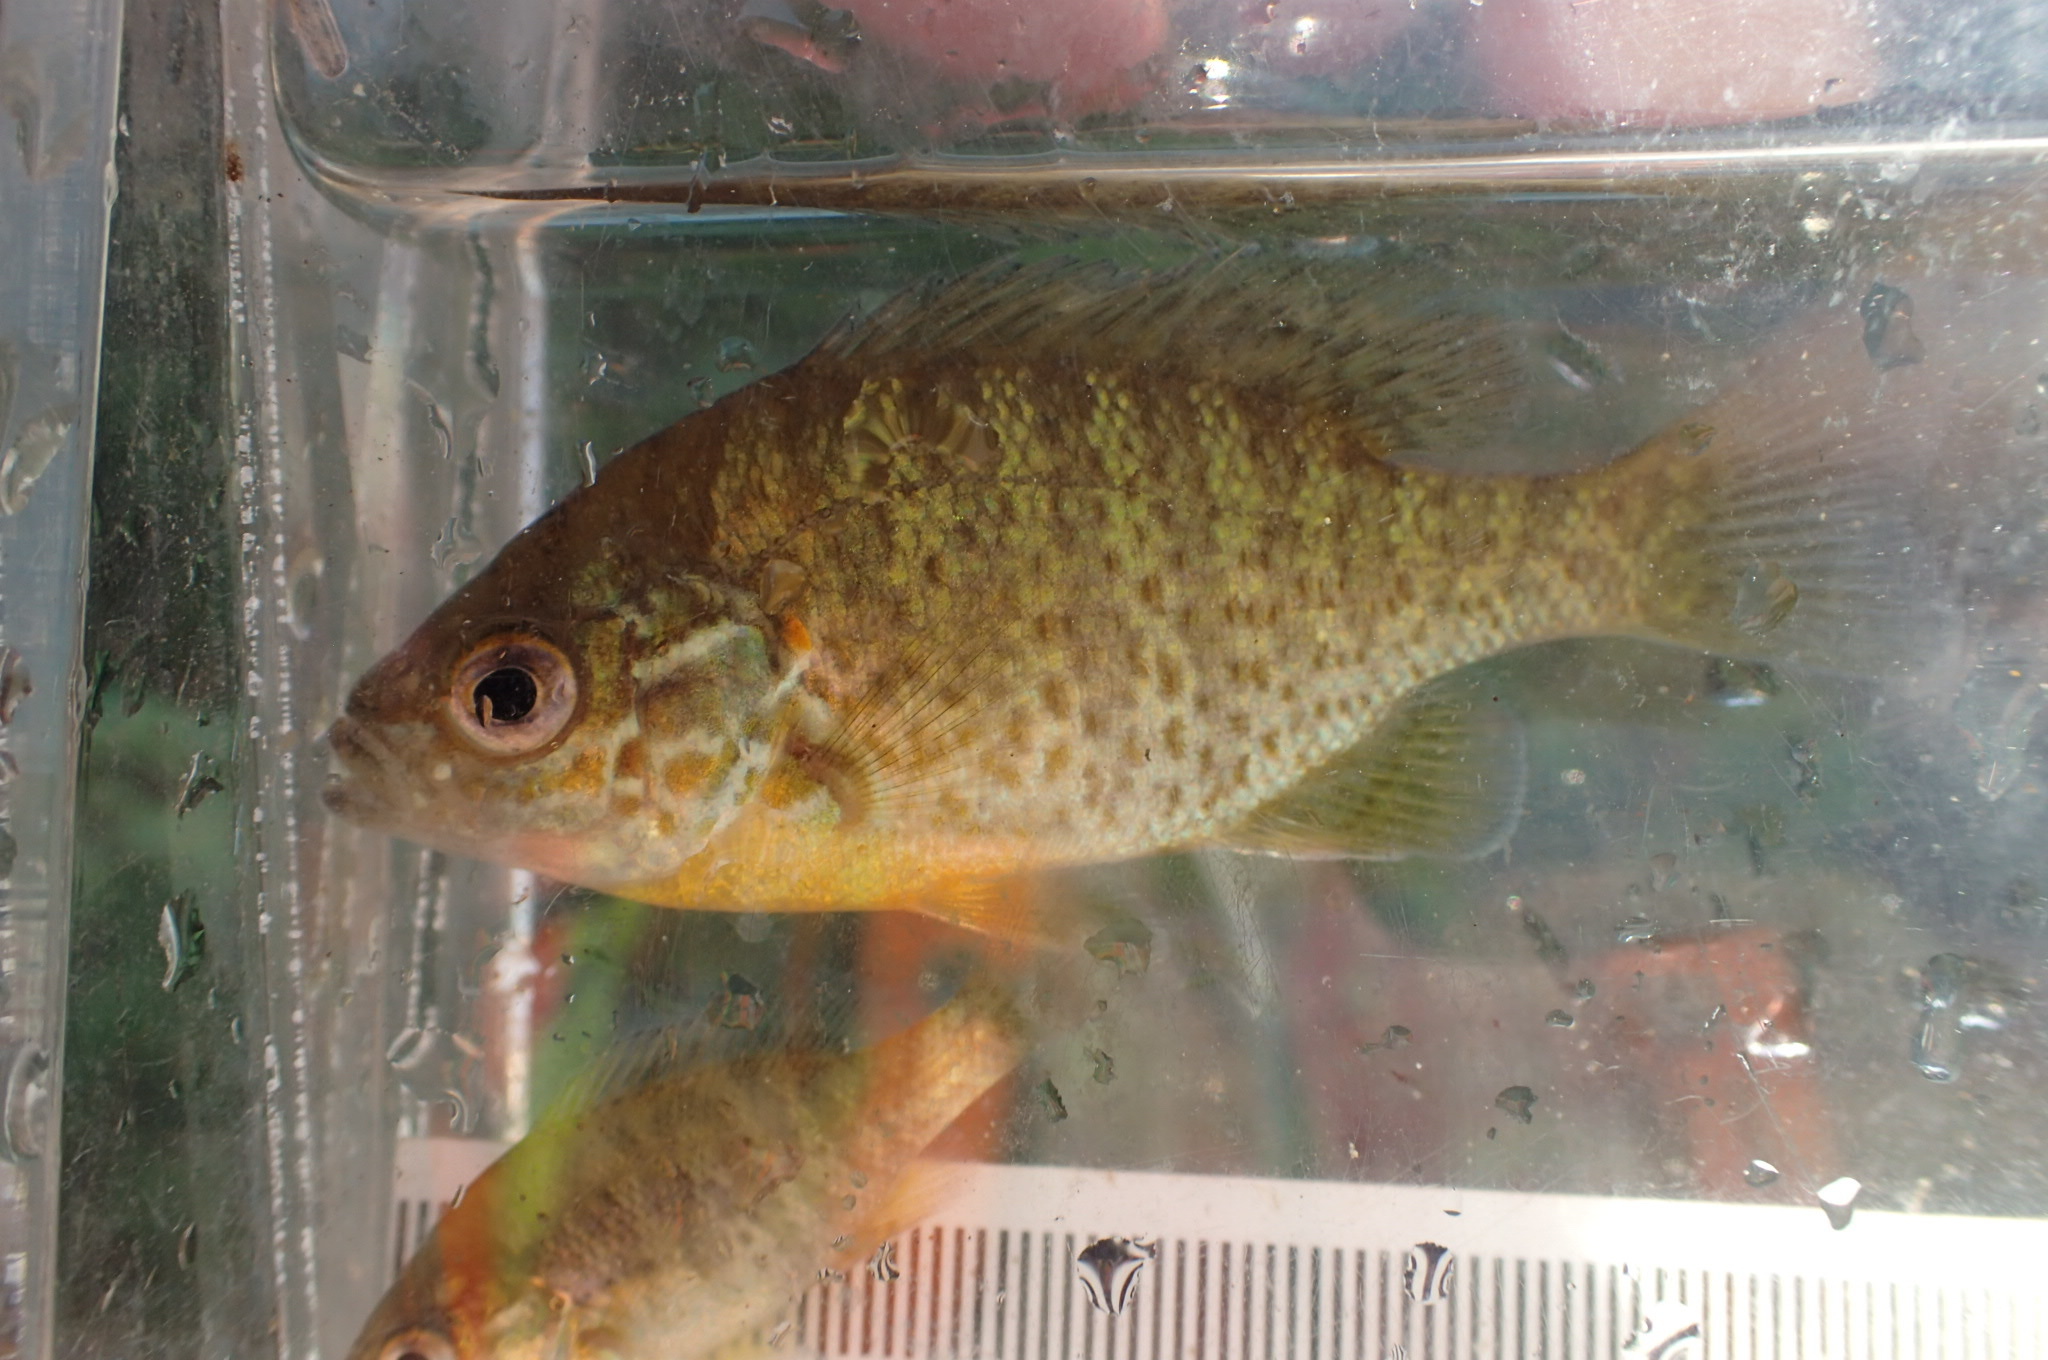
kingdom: Animalia
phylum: Chordata
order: Perciformes
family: Centrarchidae
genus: Lepomis
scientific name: Lepomis gibbosus
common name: Pumpkinseed
